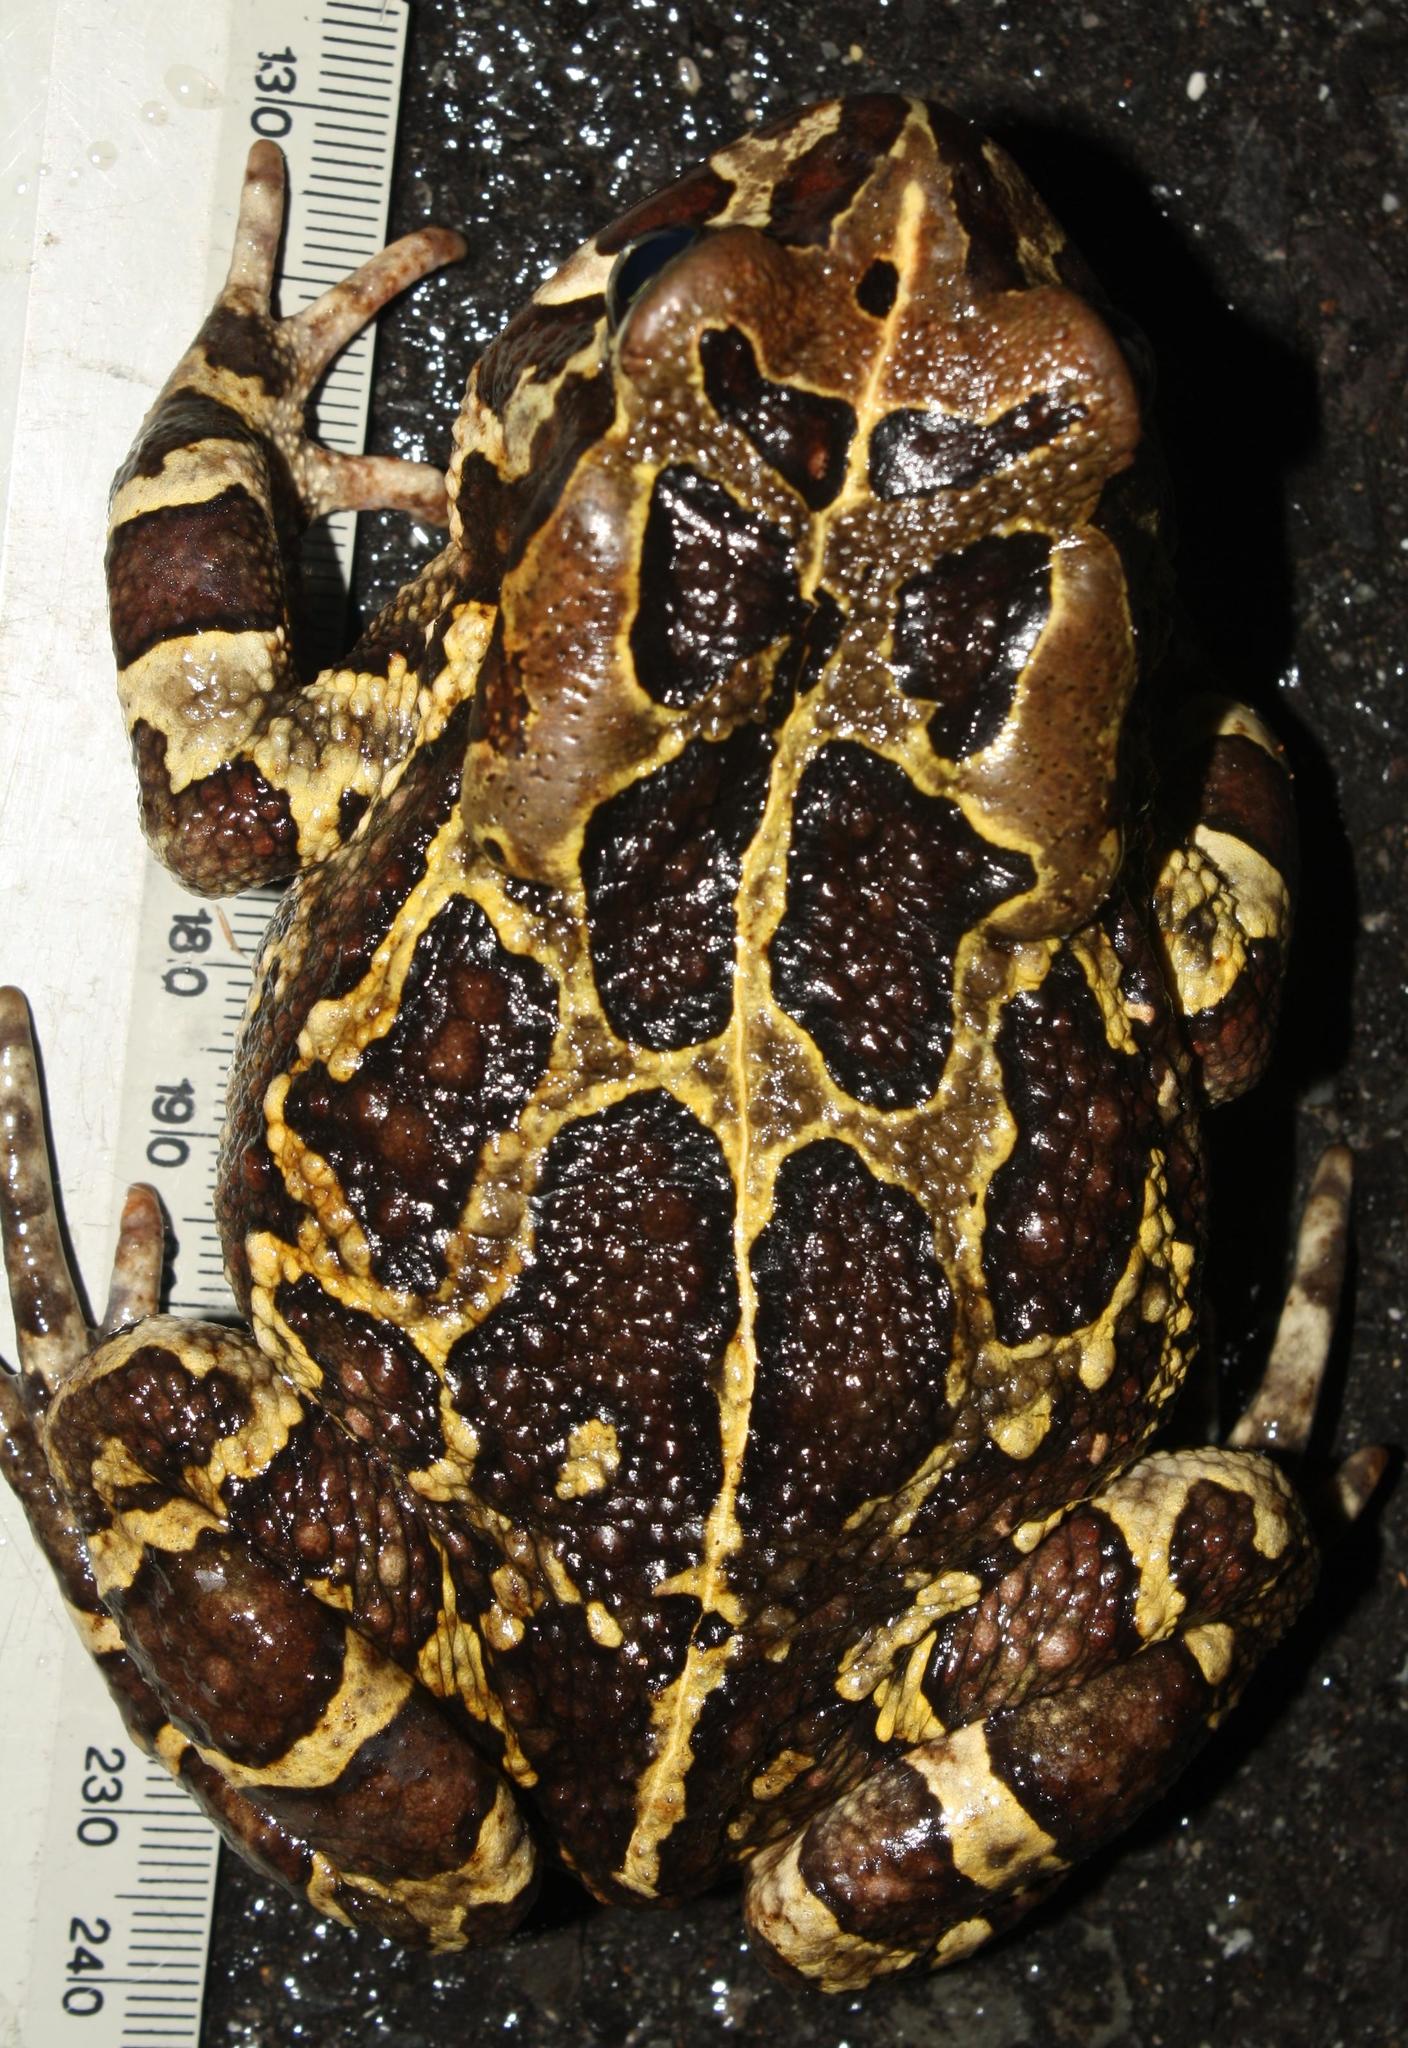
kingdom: Animalia
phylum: Chordata
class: Amphibia
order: Anura
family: Bufonidae
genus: Sclerophrys
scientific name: Sclerophrys pantherina
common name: Panther toad
